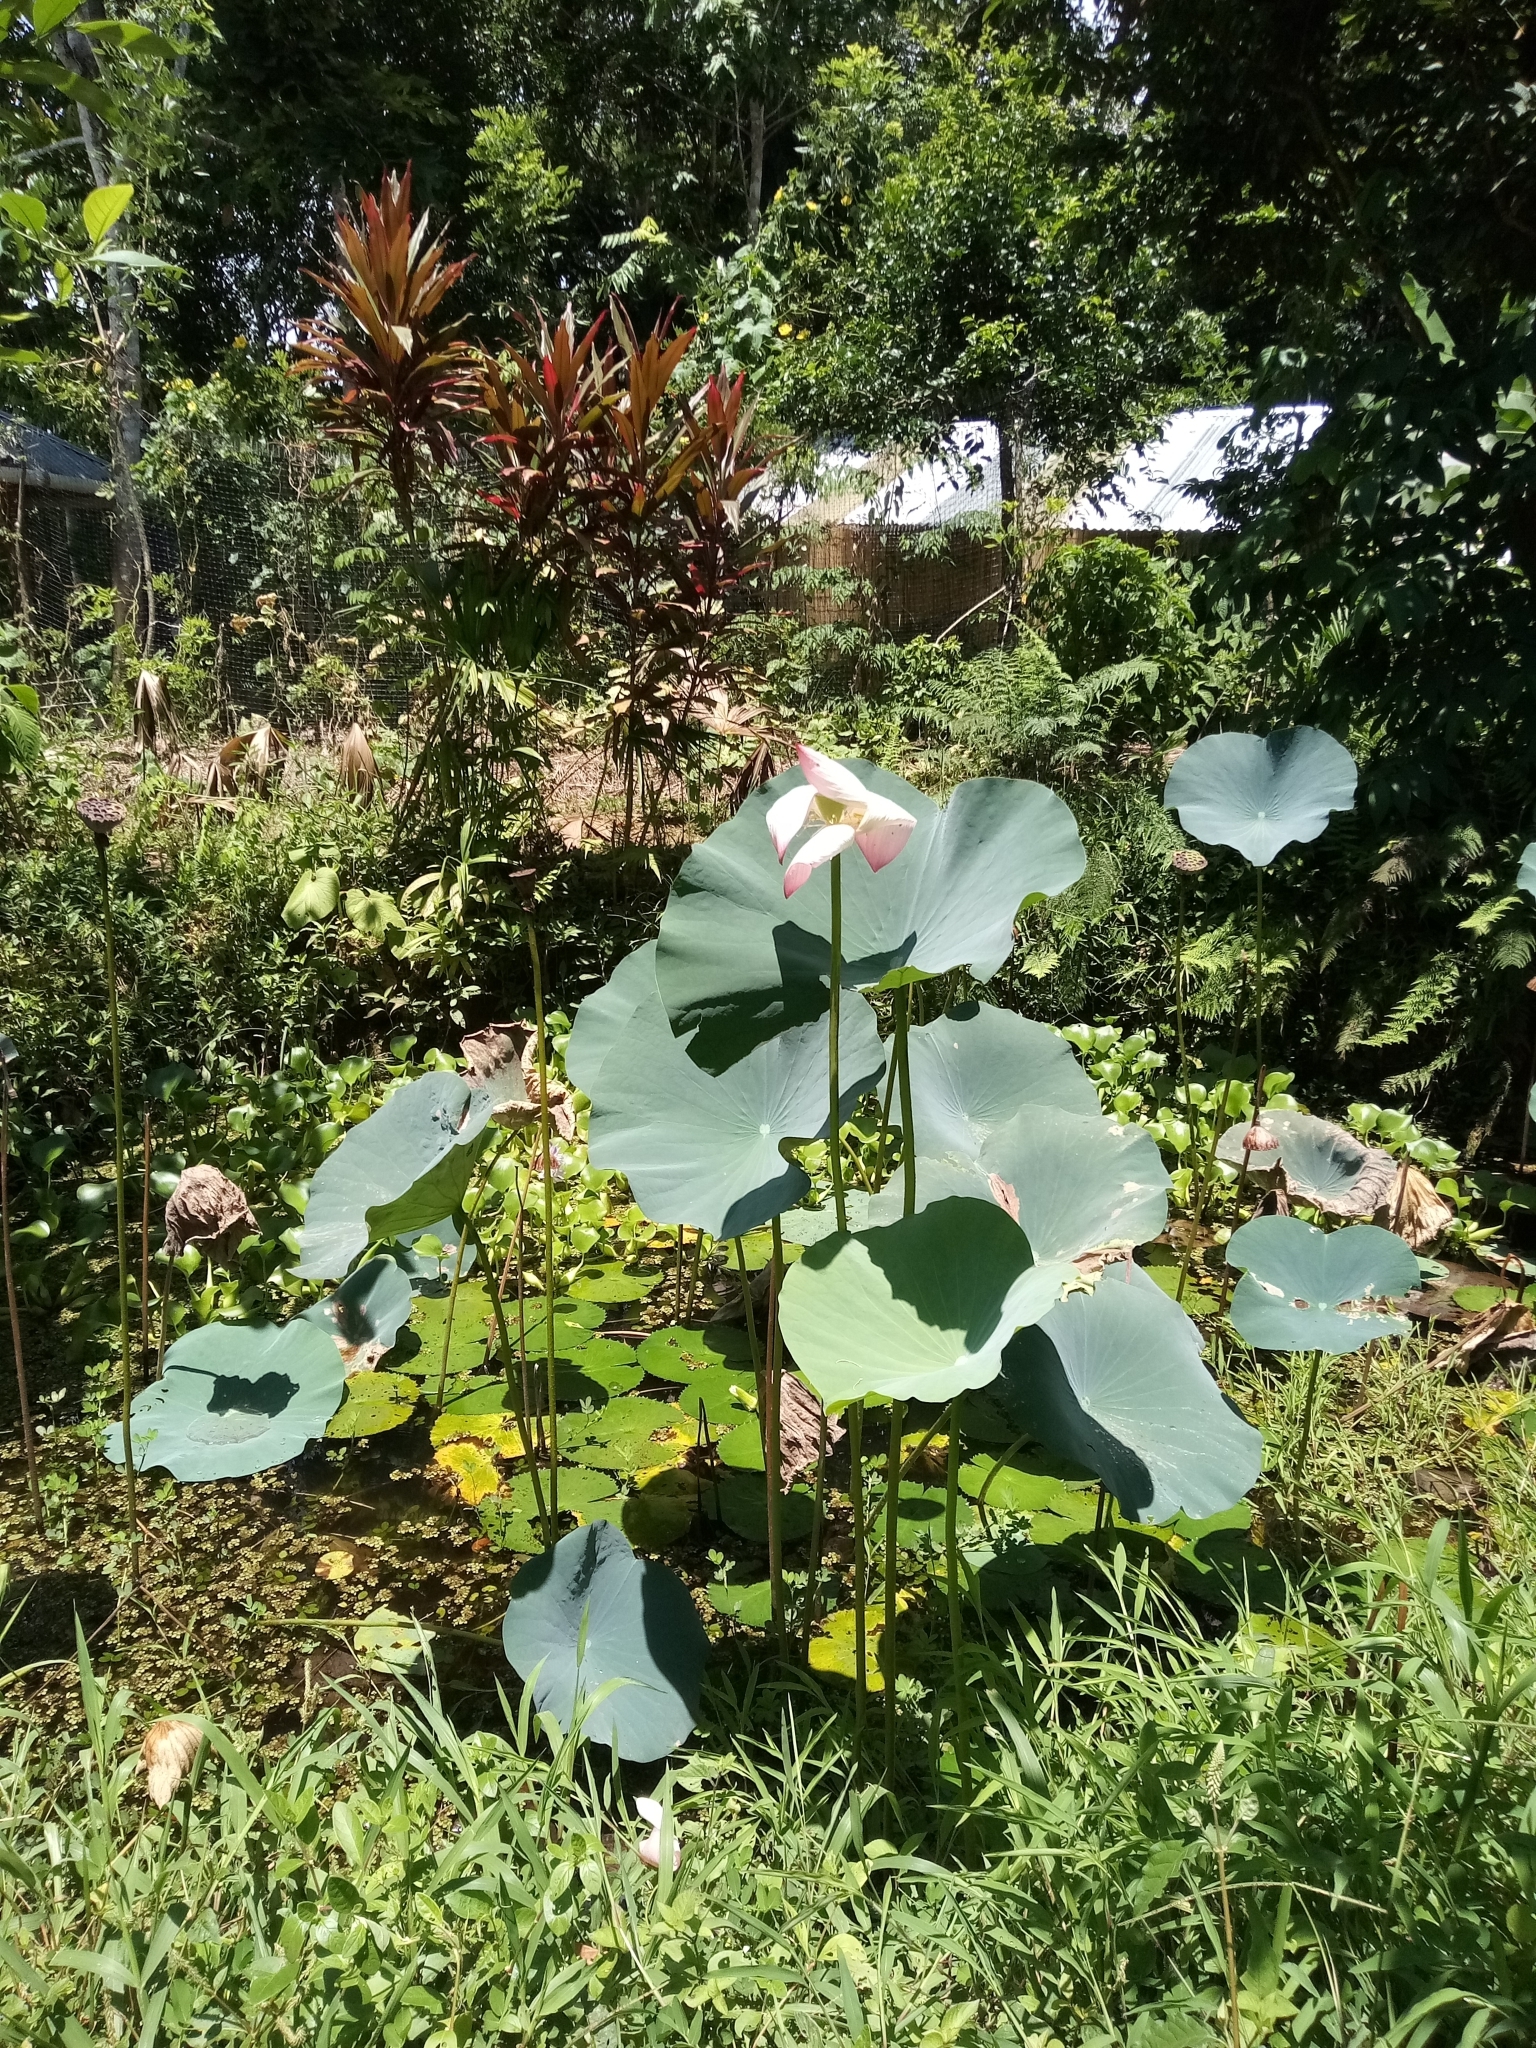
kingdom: Plantae
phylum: Tracheophyta
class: Magnoliopsida
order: Proteales
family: Nelumbonaceae
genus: Nelumbo
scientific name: Nelumbo nucifera
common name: Sacred lotus
